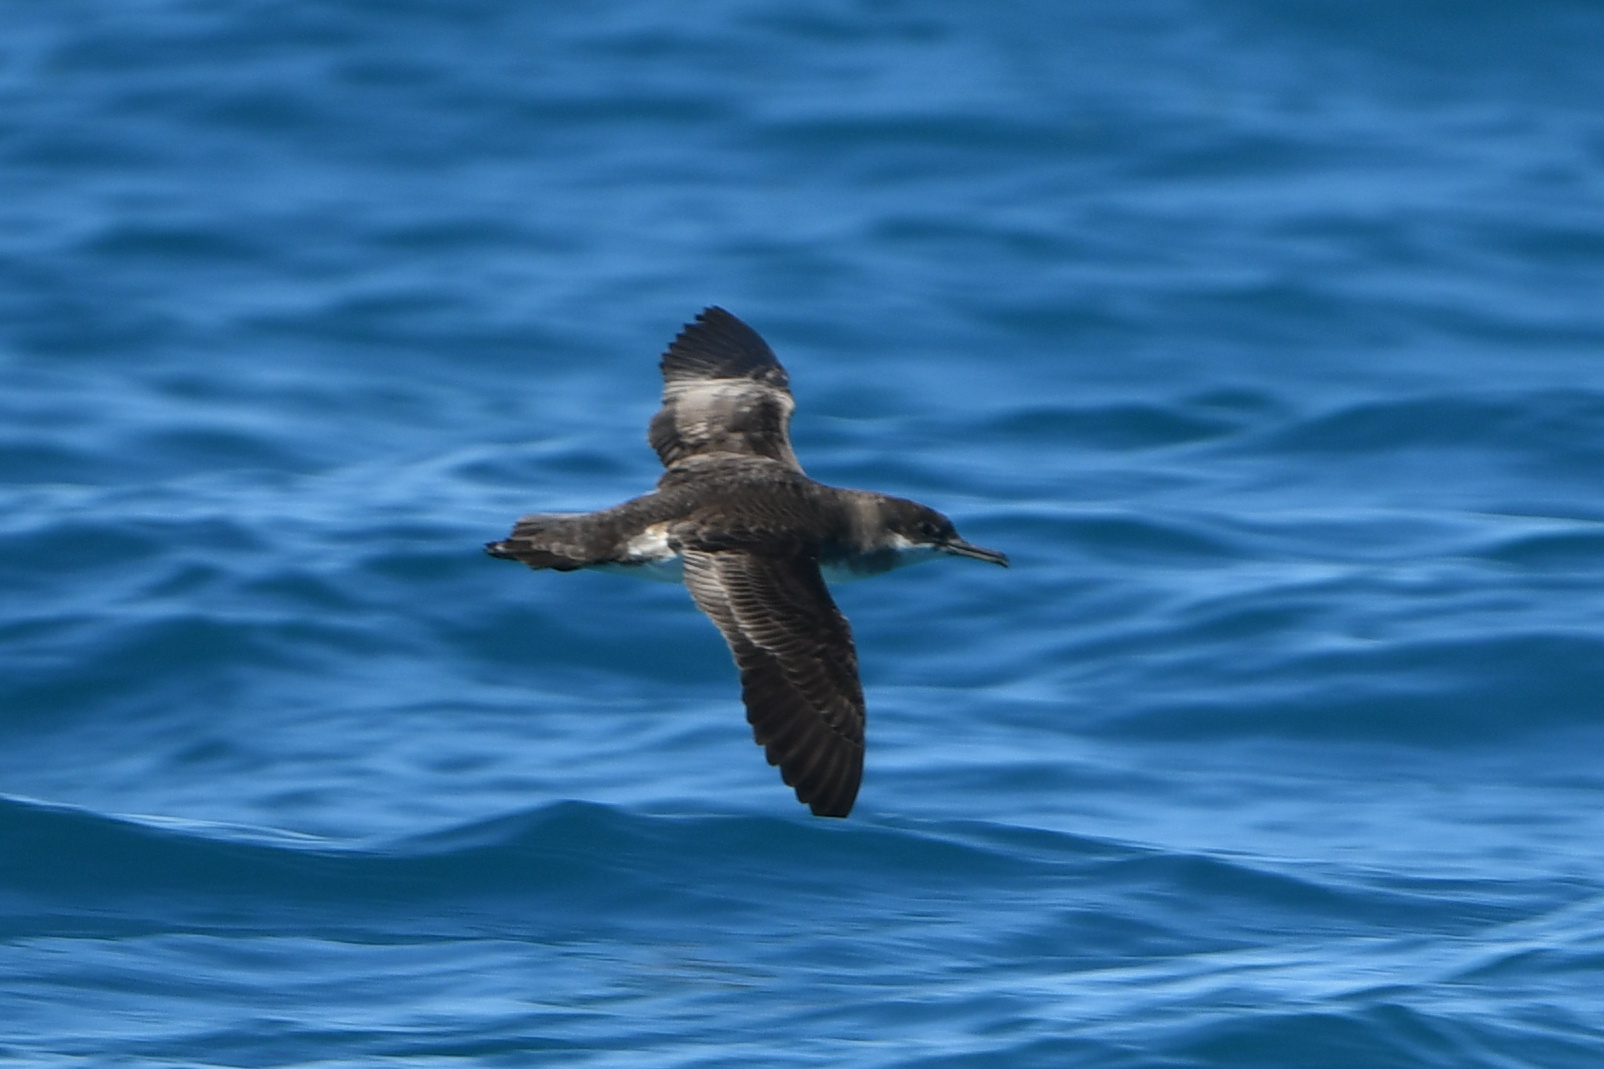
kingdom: Animalia
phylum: Chordata
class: Aves
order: Procellariiformes
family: Procellariidae
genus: Puffinus
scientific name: Puffinus gavia
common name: Fluttering shearwater
